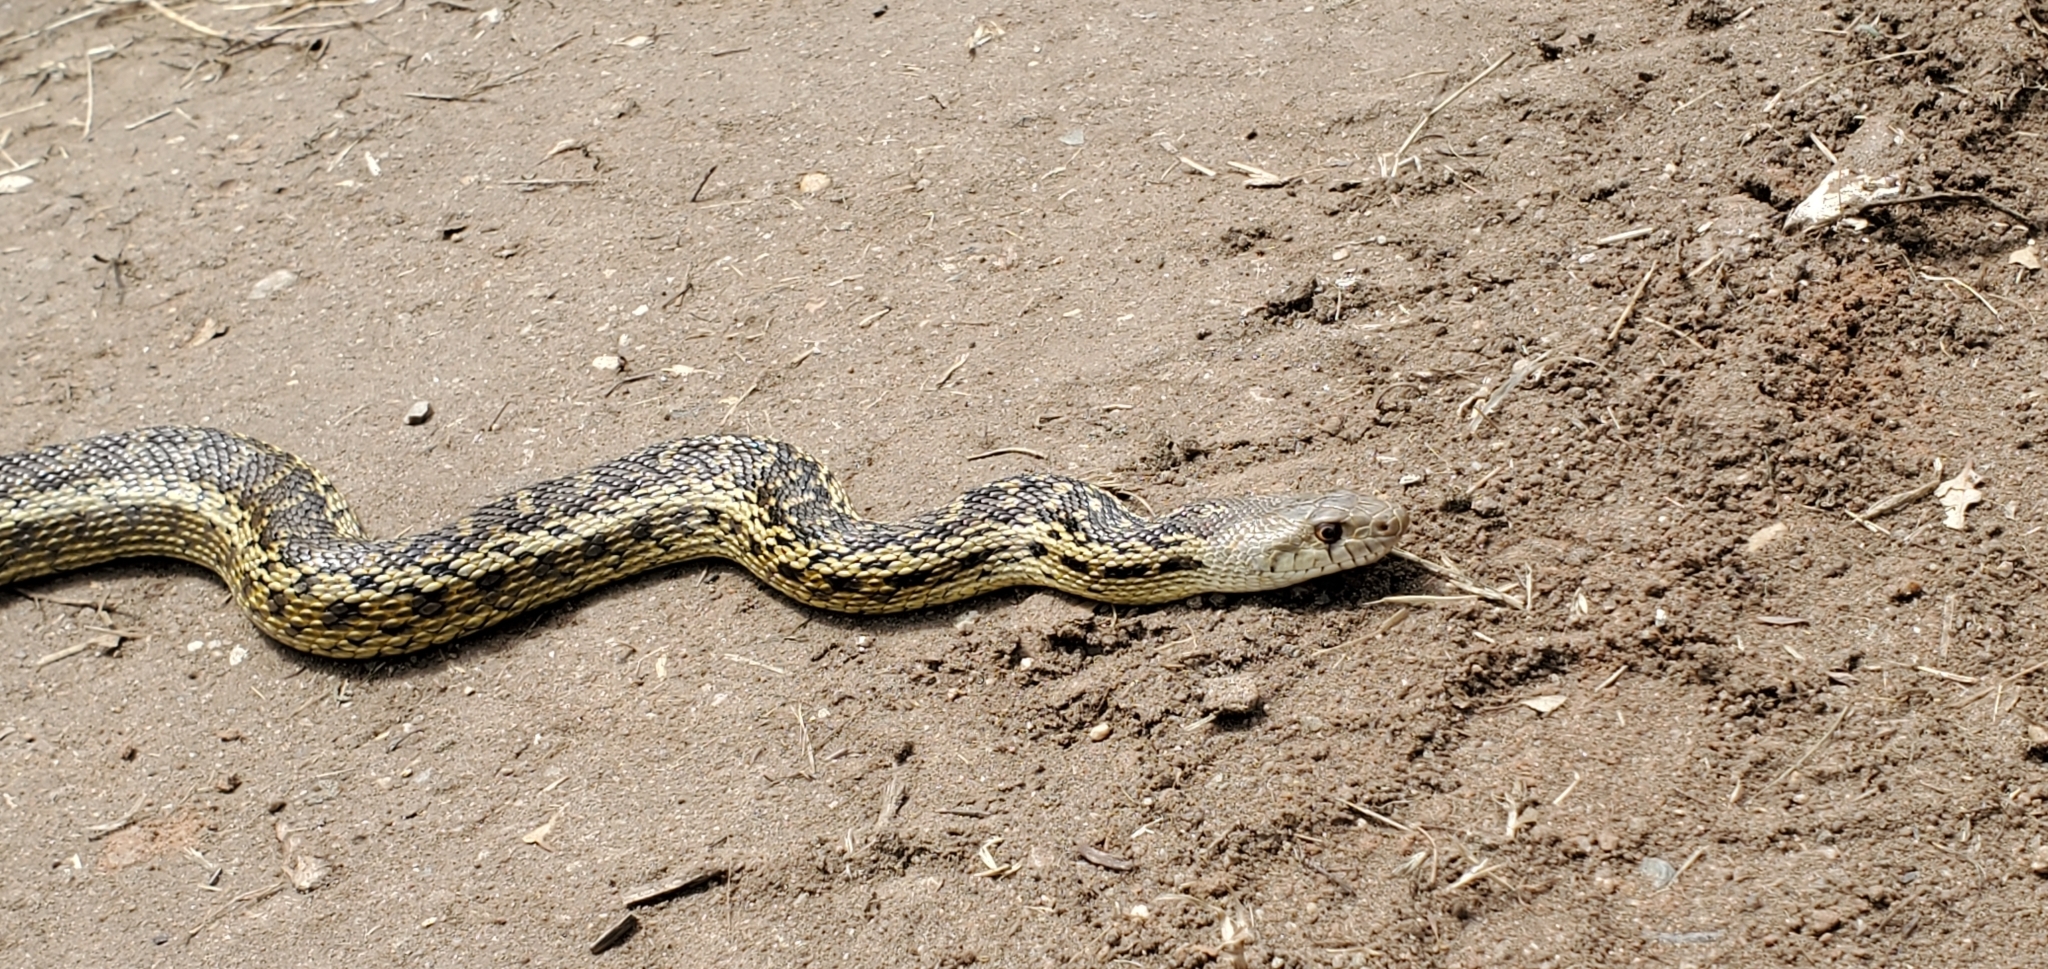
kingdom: Animalia
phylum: Chordata
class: Squamata
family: Colubridae
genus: Pituophis
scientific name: Pituophis catenifer
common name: Gopher snake
